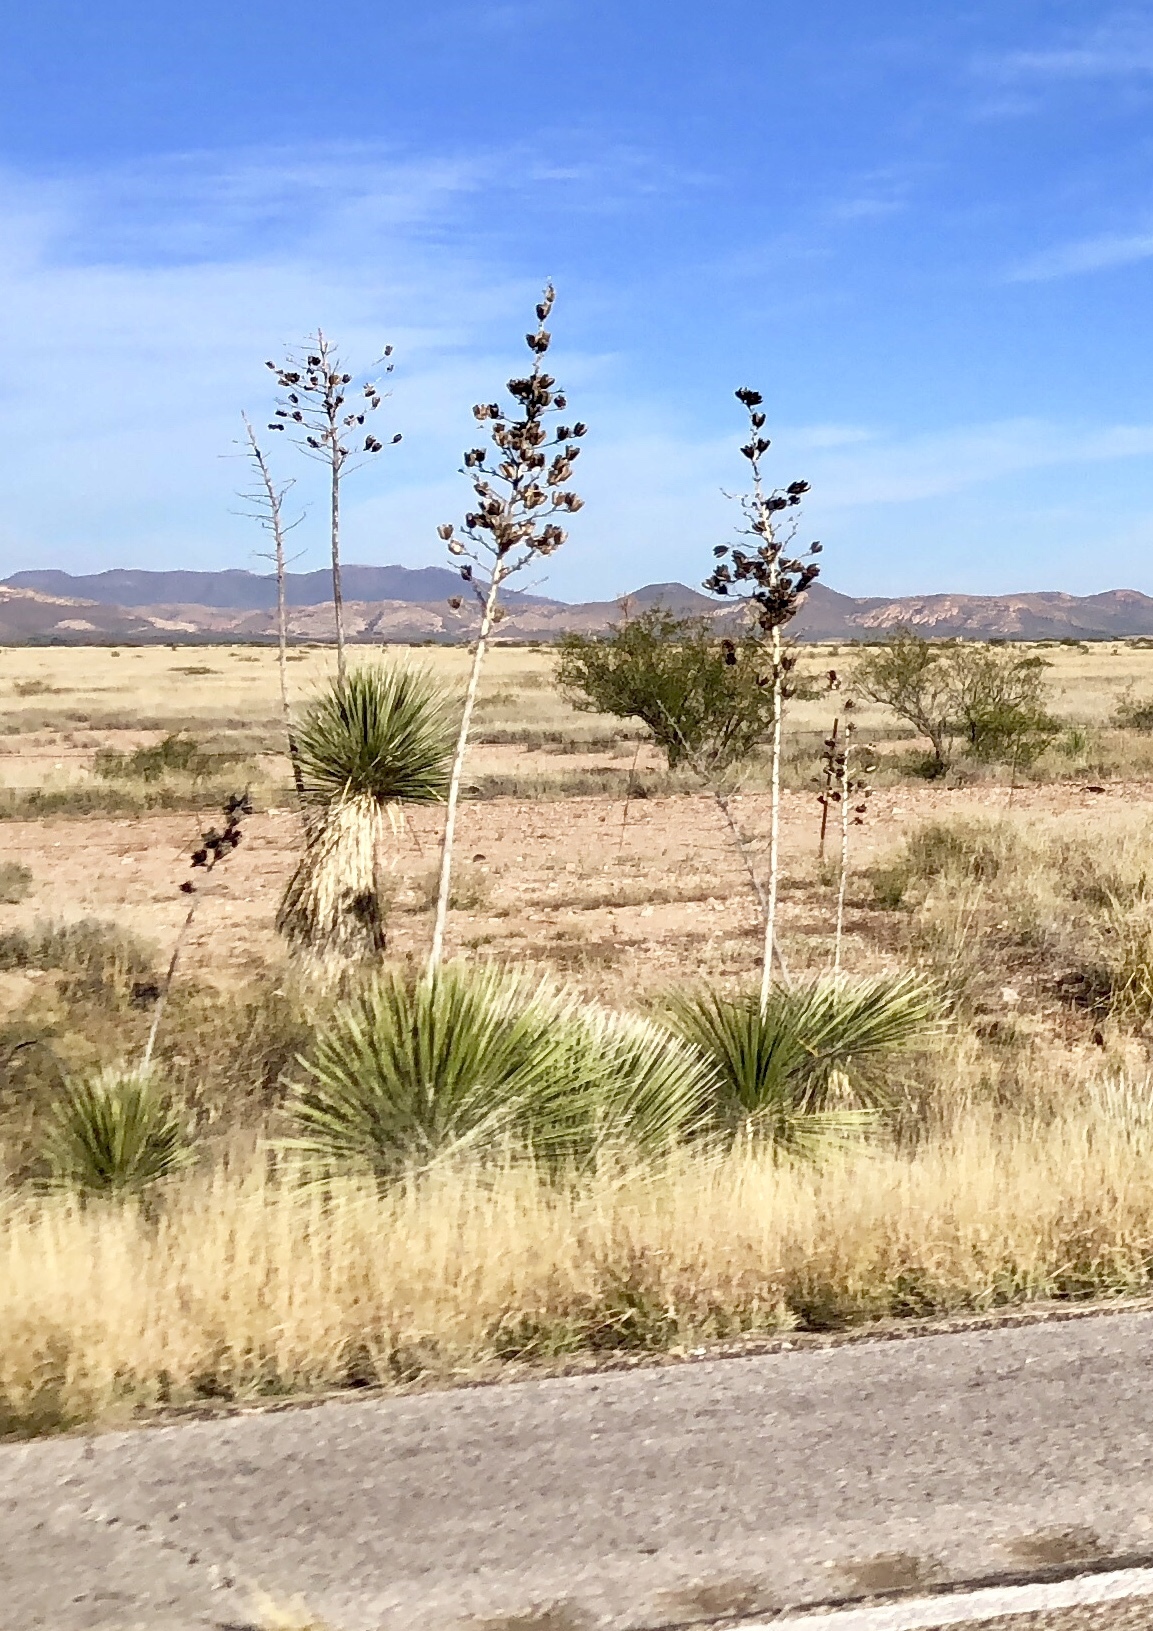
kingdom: Plantae
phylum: Tracheophyta
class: Liliopsida
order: Asparagales
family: Asparagaceae
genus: Yucca
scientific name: Yucca elata
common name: Palmella
